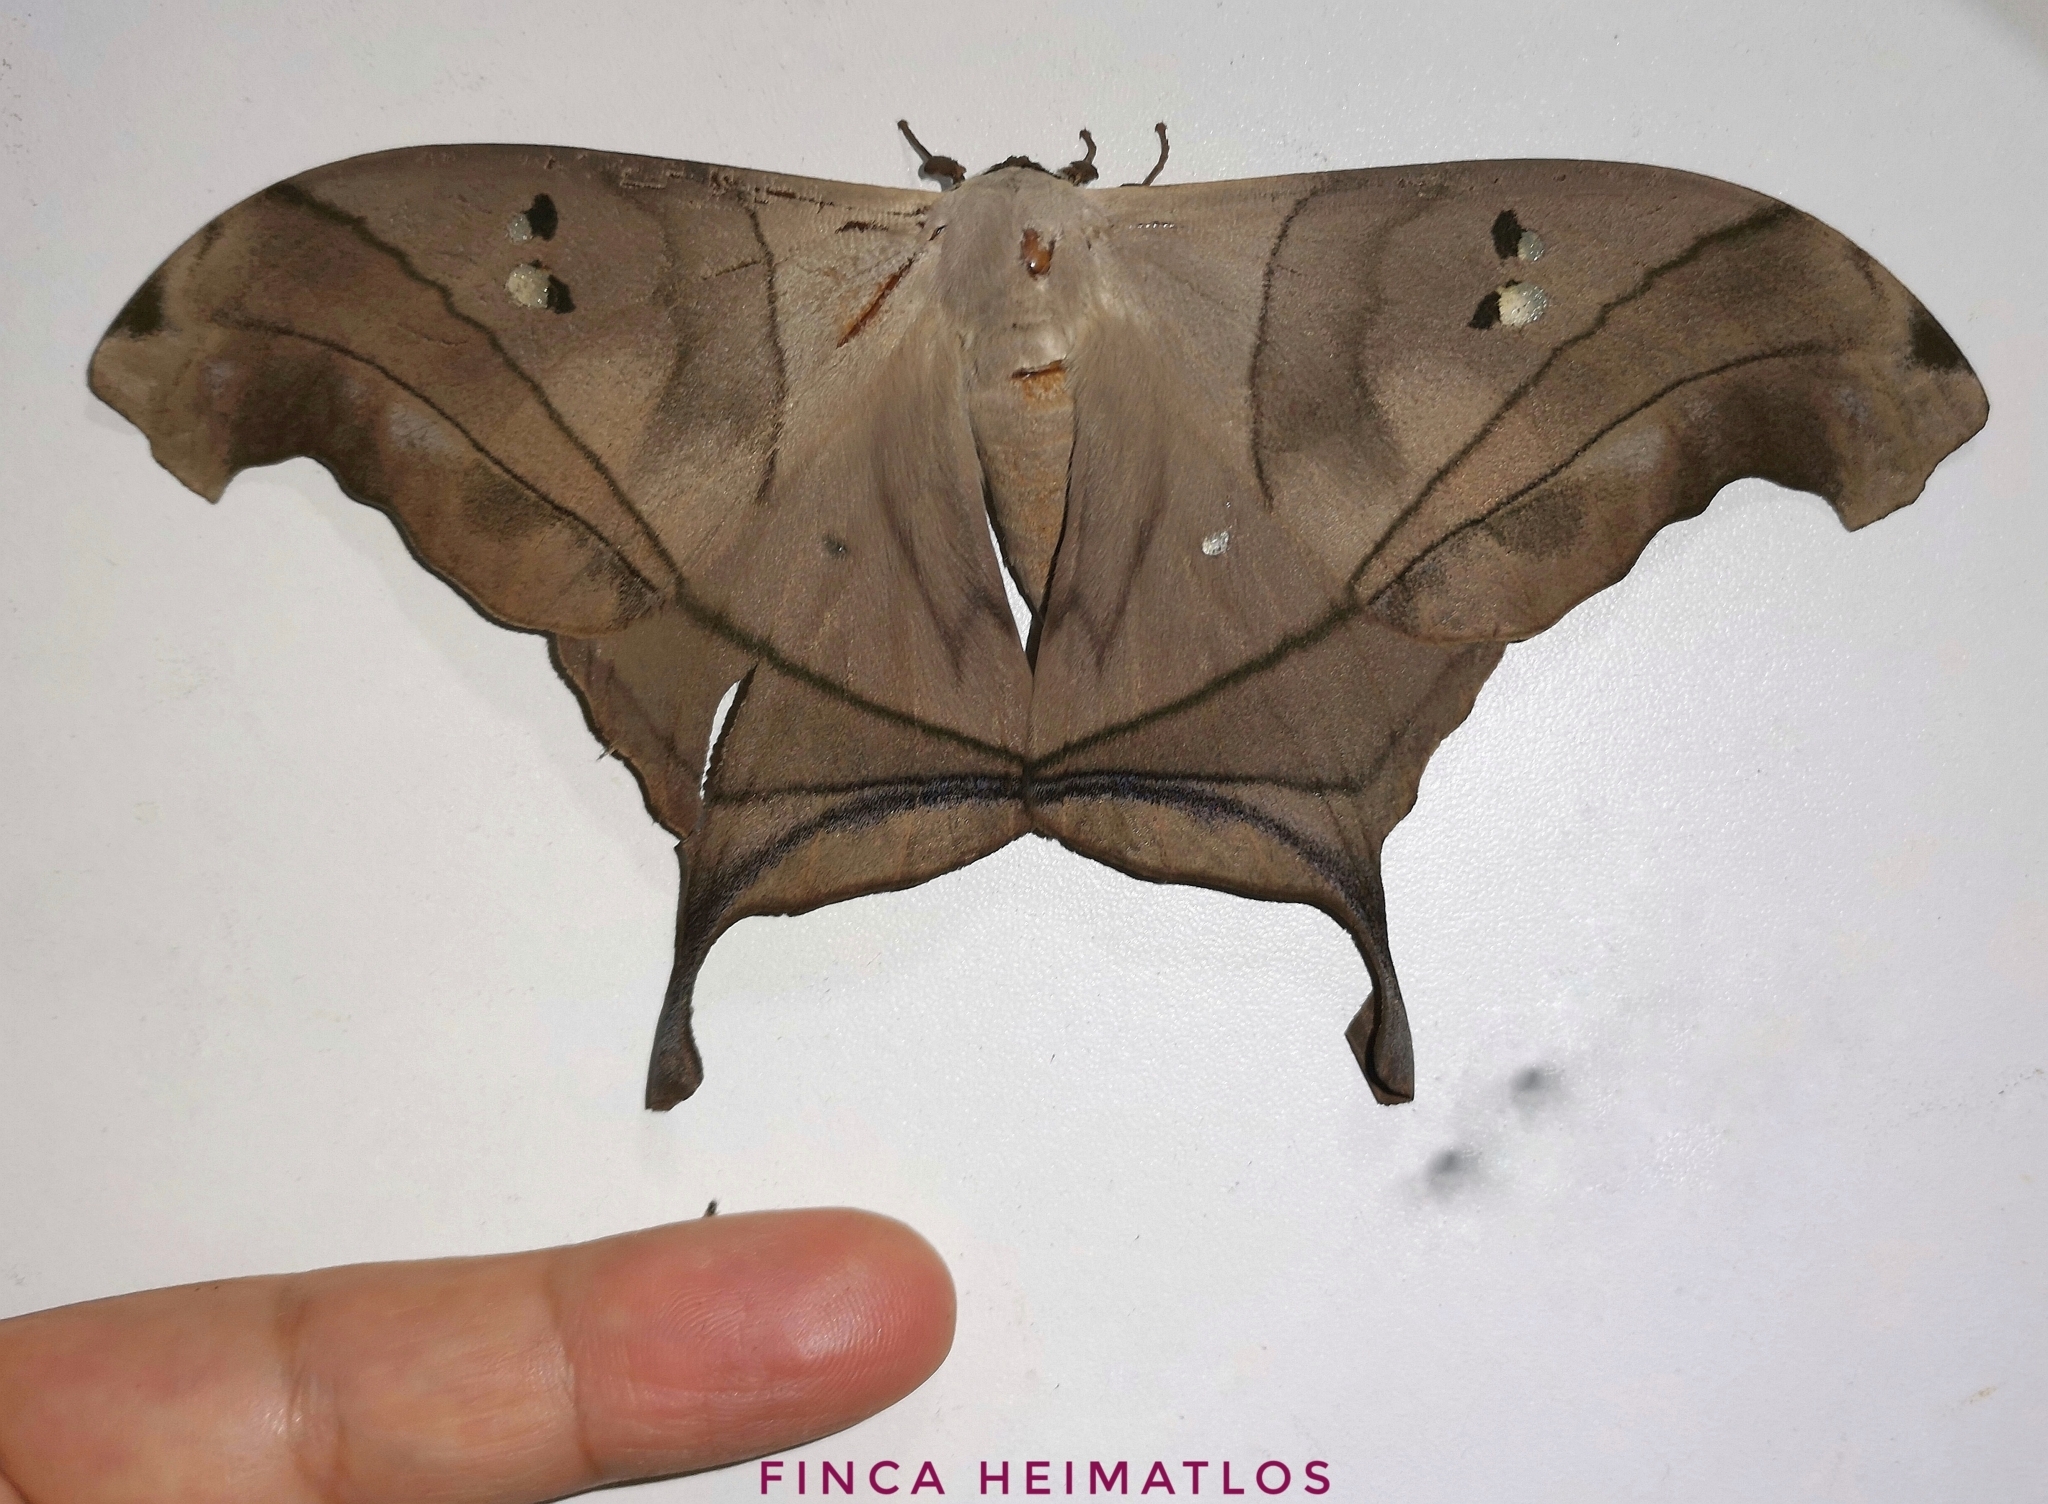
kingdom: Animalia
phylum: Arthropoda
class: Insecta
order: Lepidoptera
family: Saturniidae
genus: Dysdaemonia
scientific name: Dysdaemonia australoboreas
